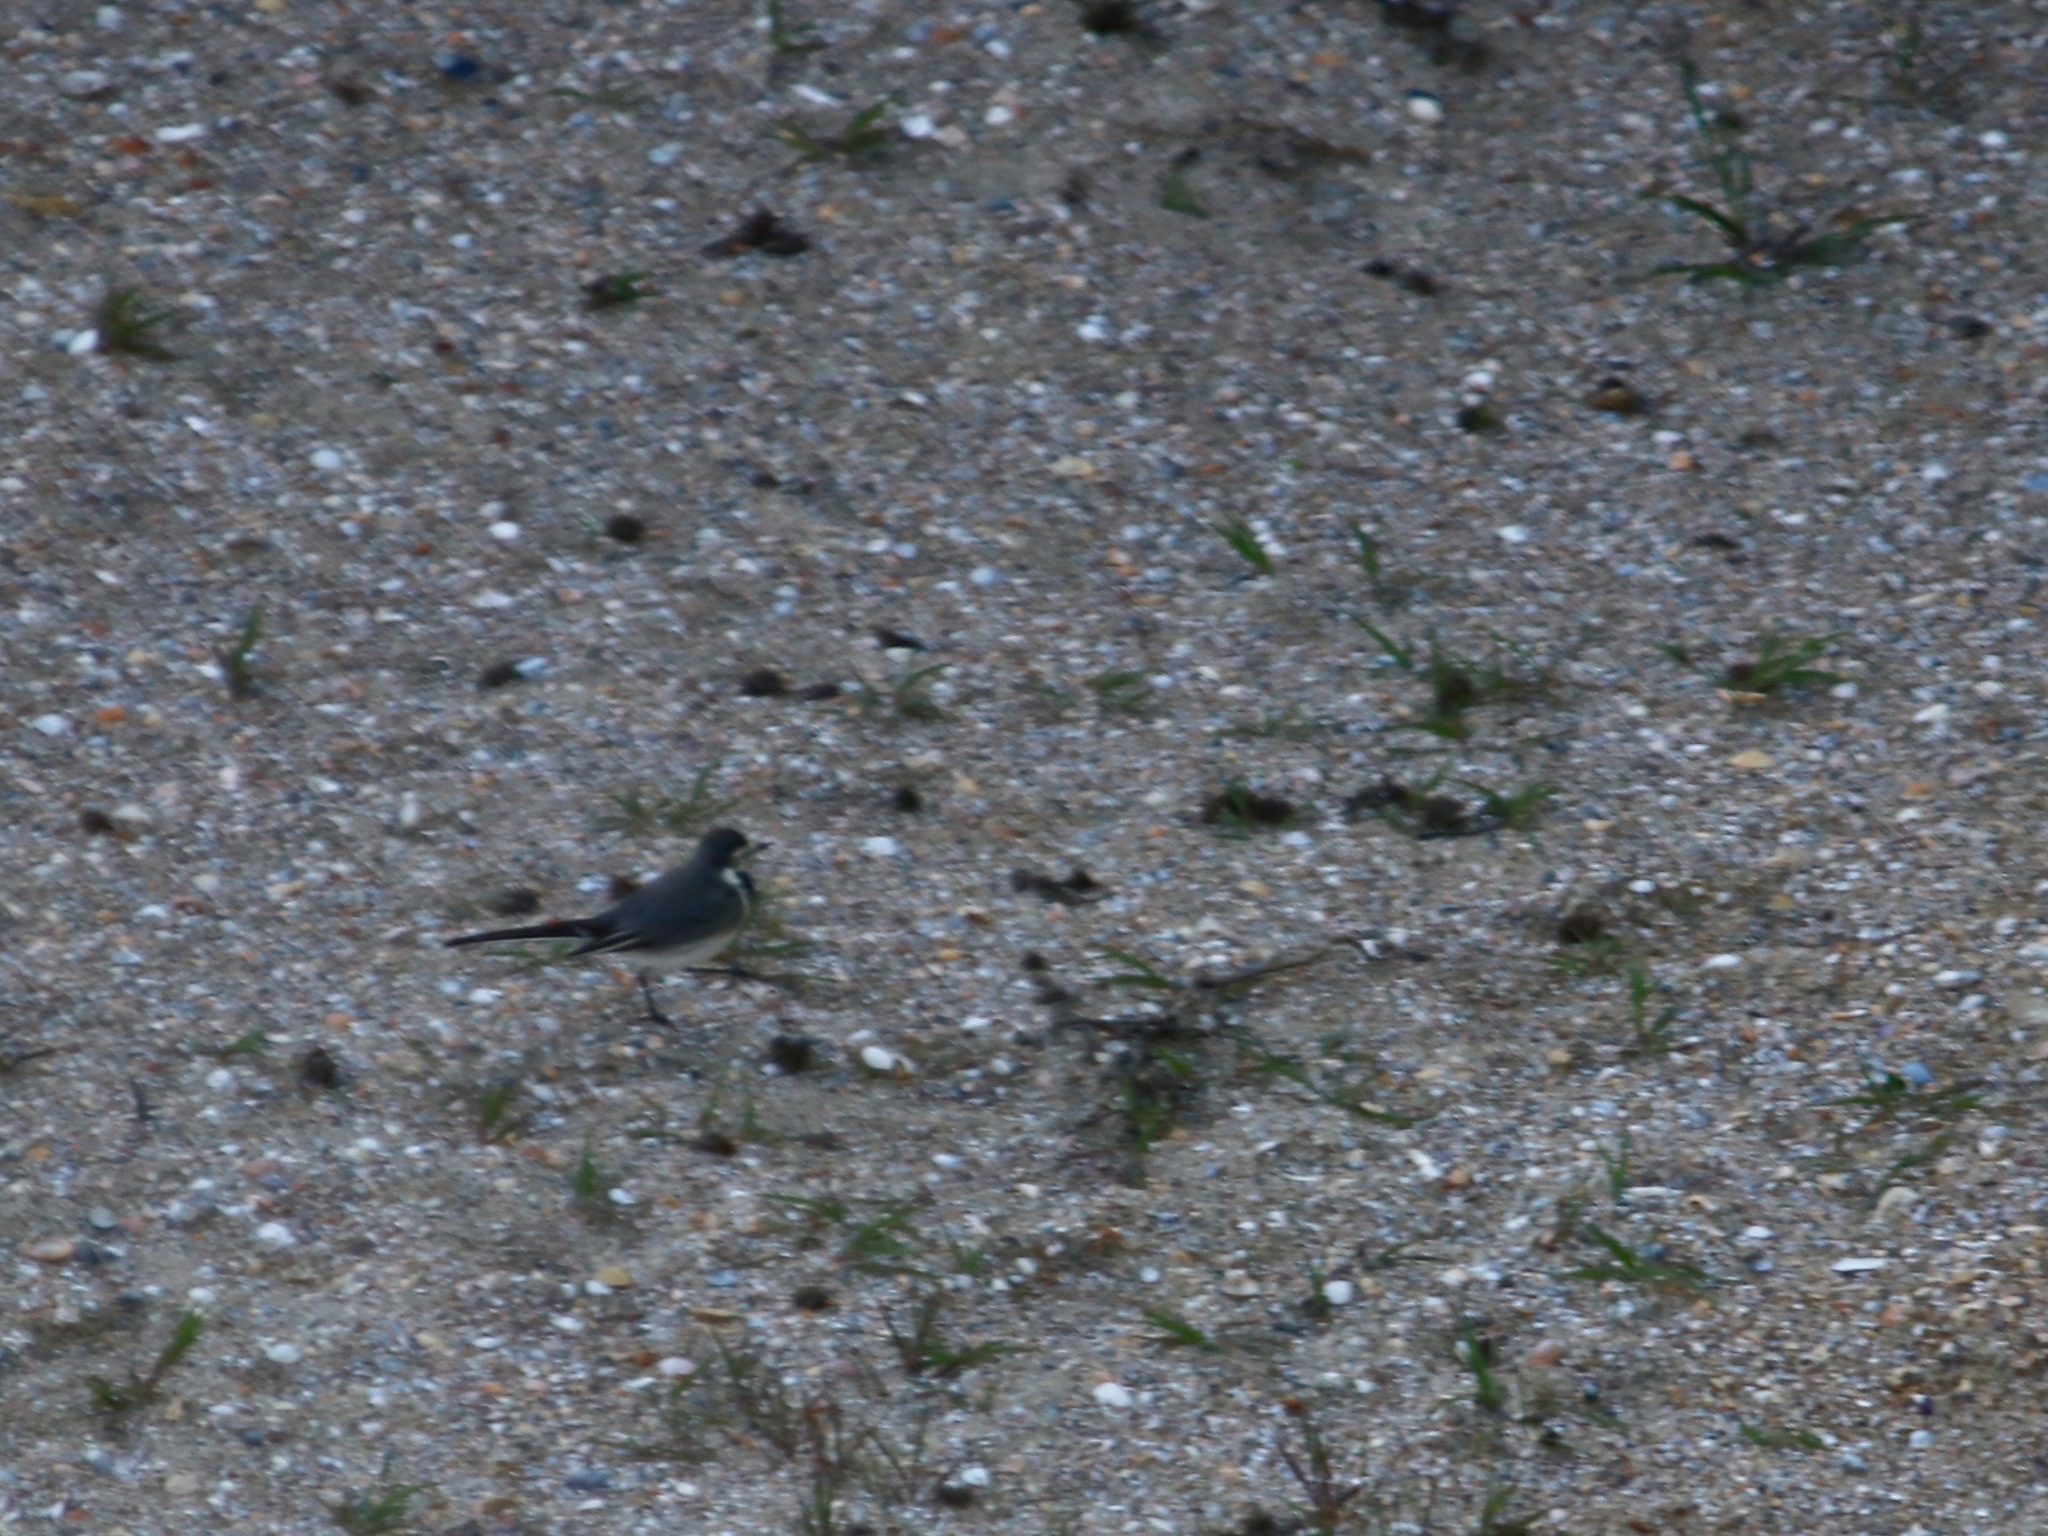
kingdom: Animalia
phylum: Chordata
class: Aves
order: Passeriformes
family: Motacillidae
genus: Motacilla
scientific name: Motacilla alba
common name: White wagtail
